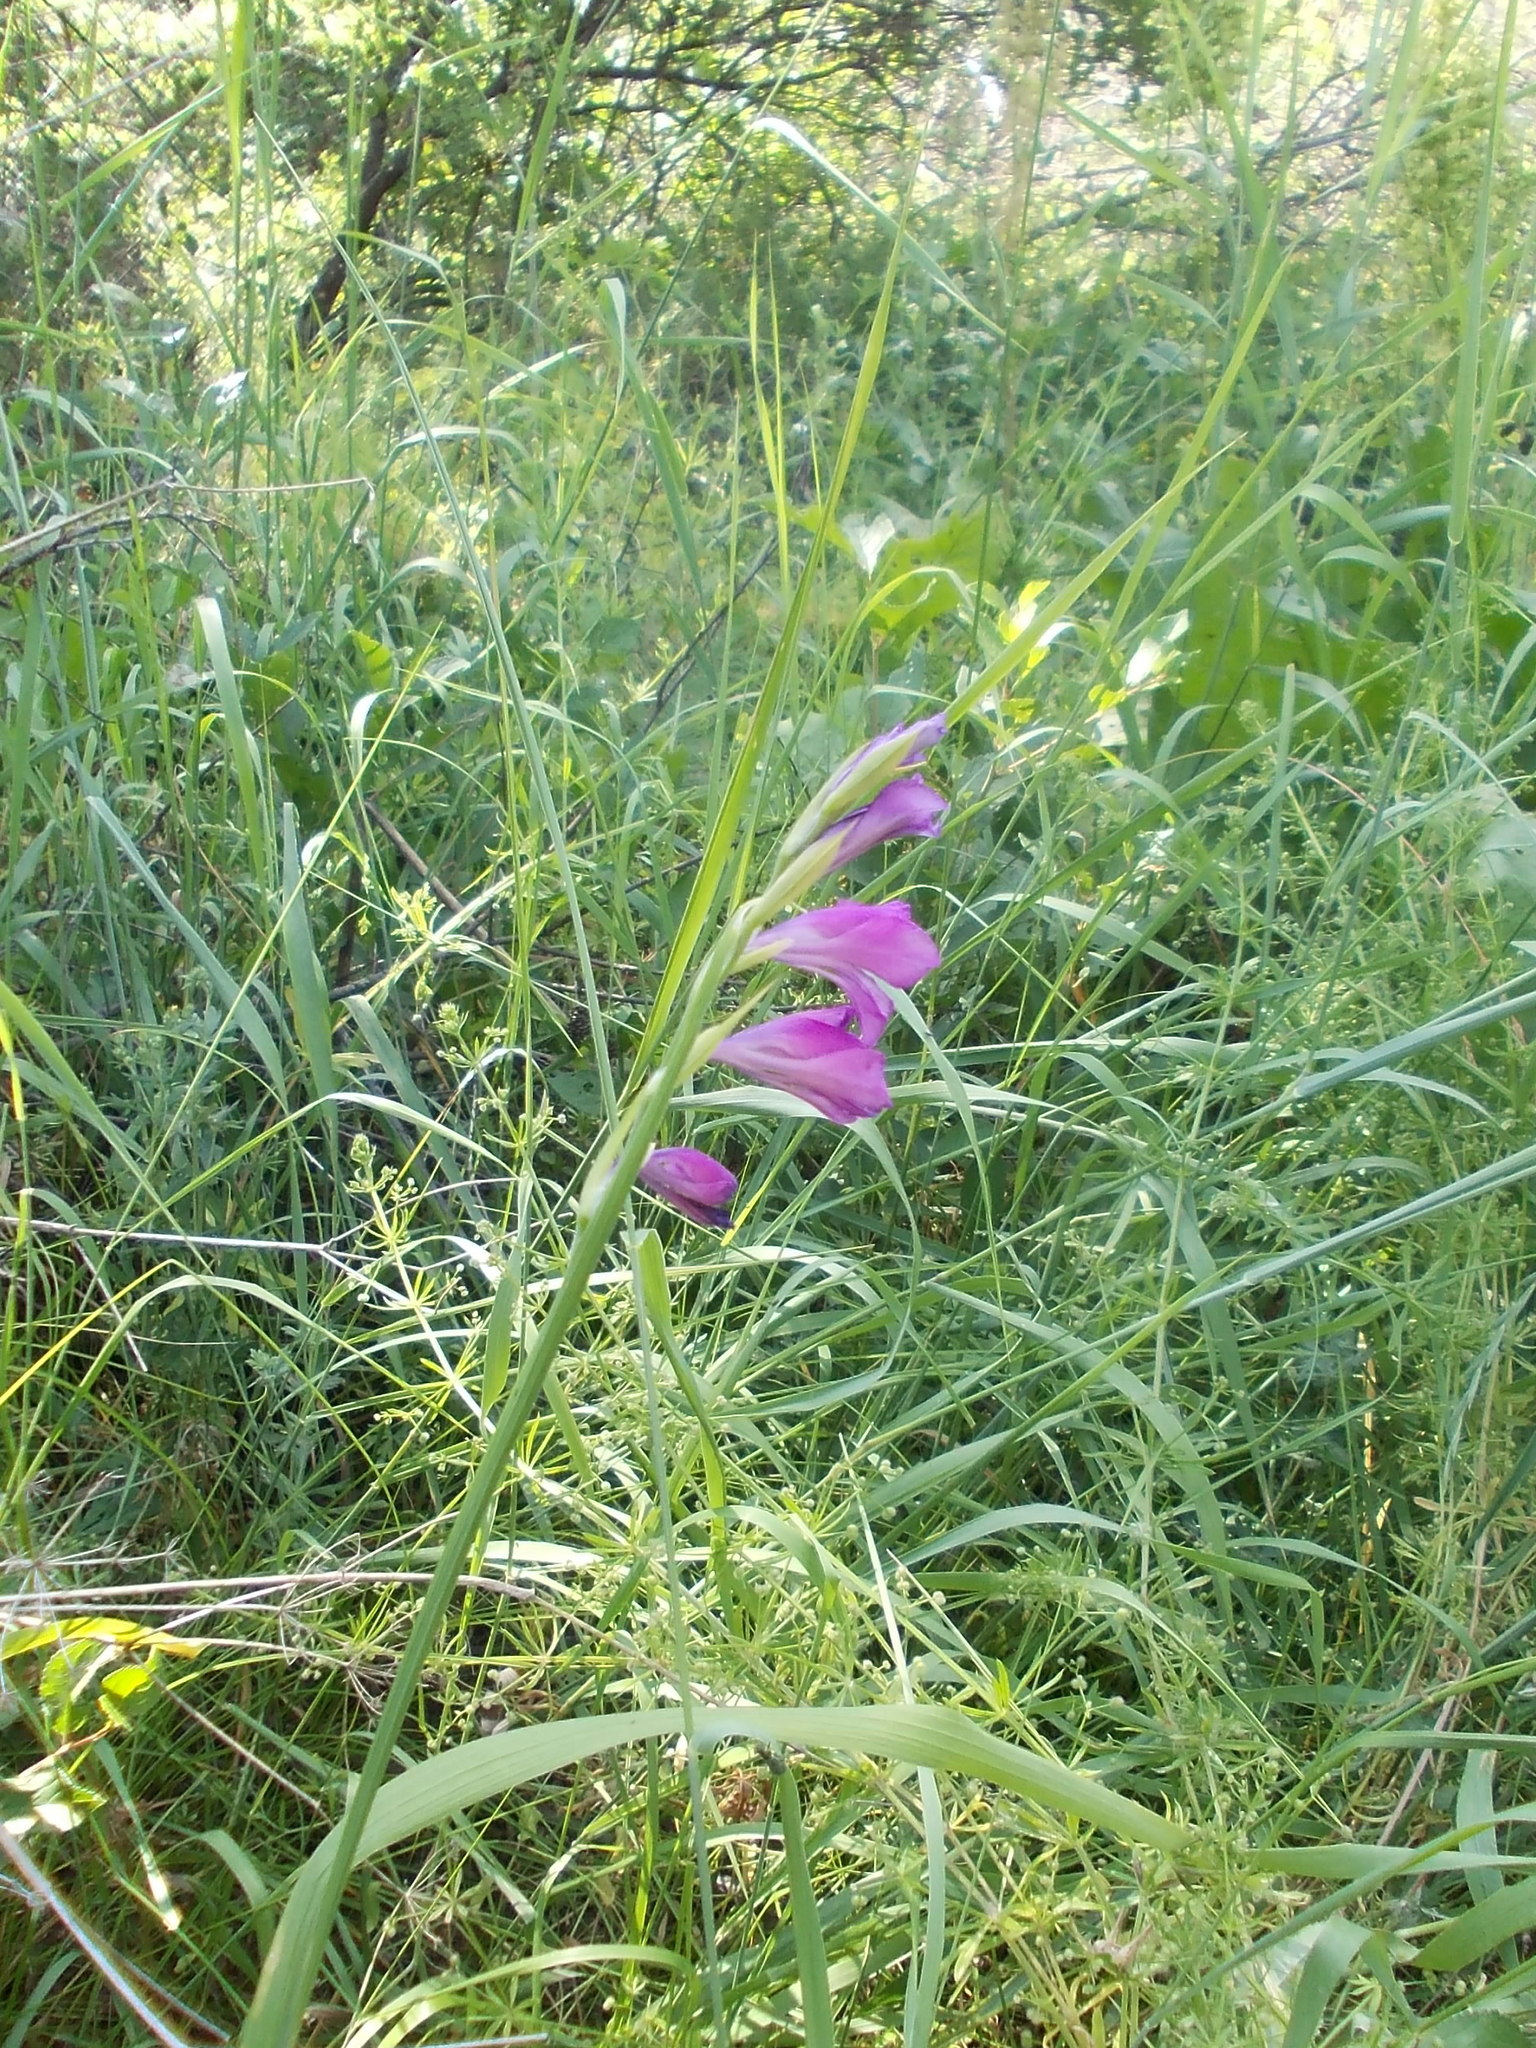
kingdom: Plantae
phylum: Tracheophyta
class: Liliopsida
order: Asparagales
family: Iridaceae
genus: Gladiolus
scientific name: Gladiolus tenuis
